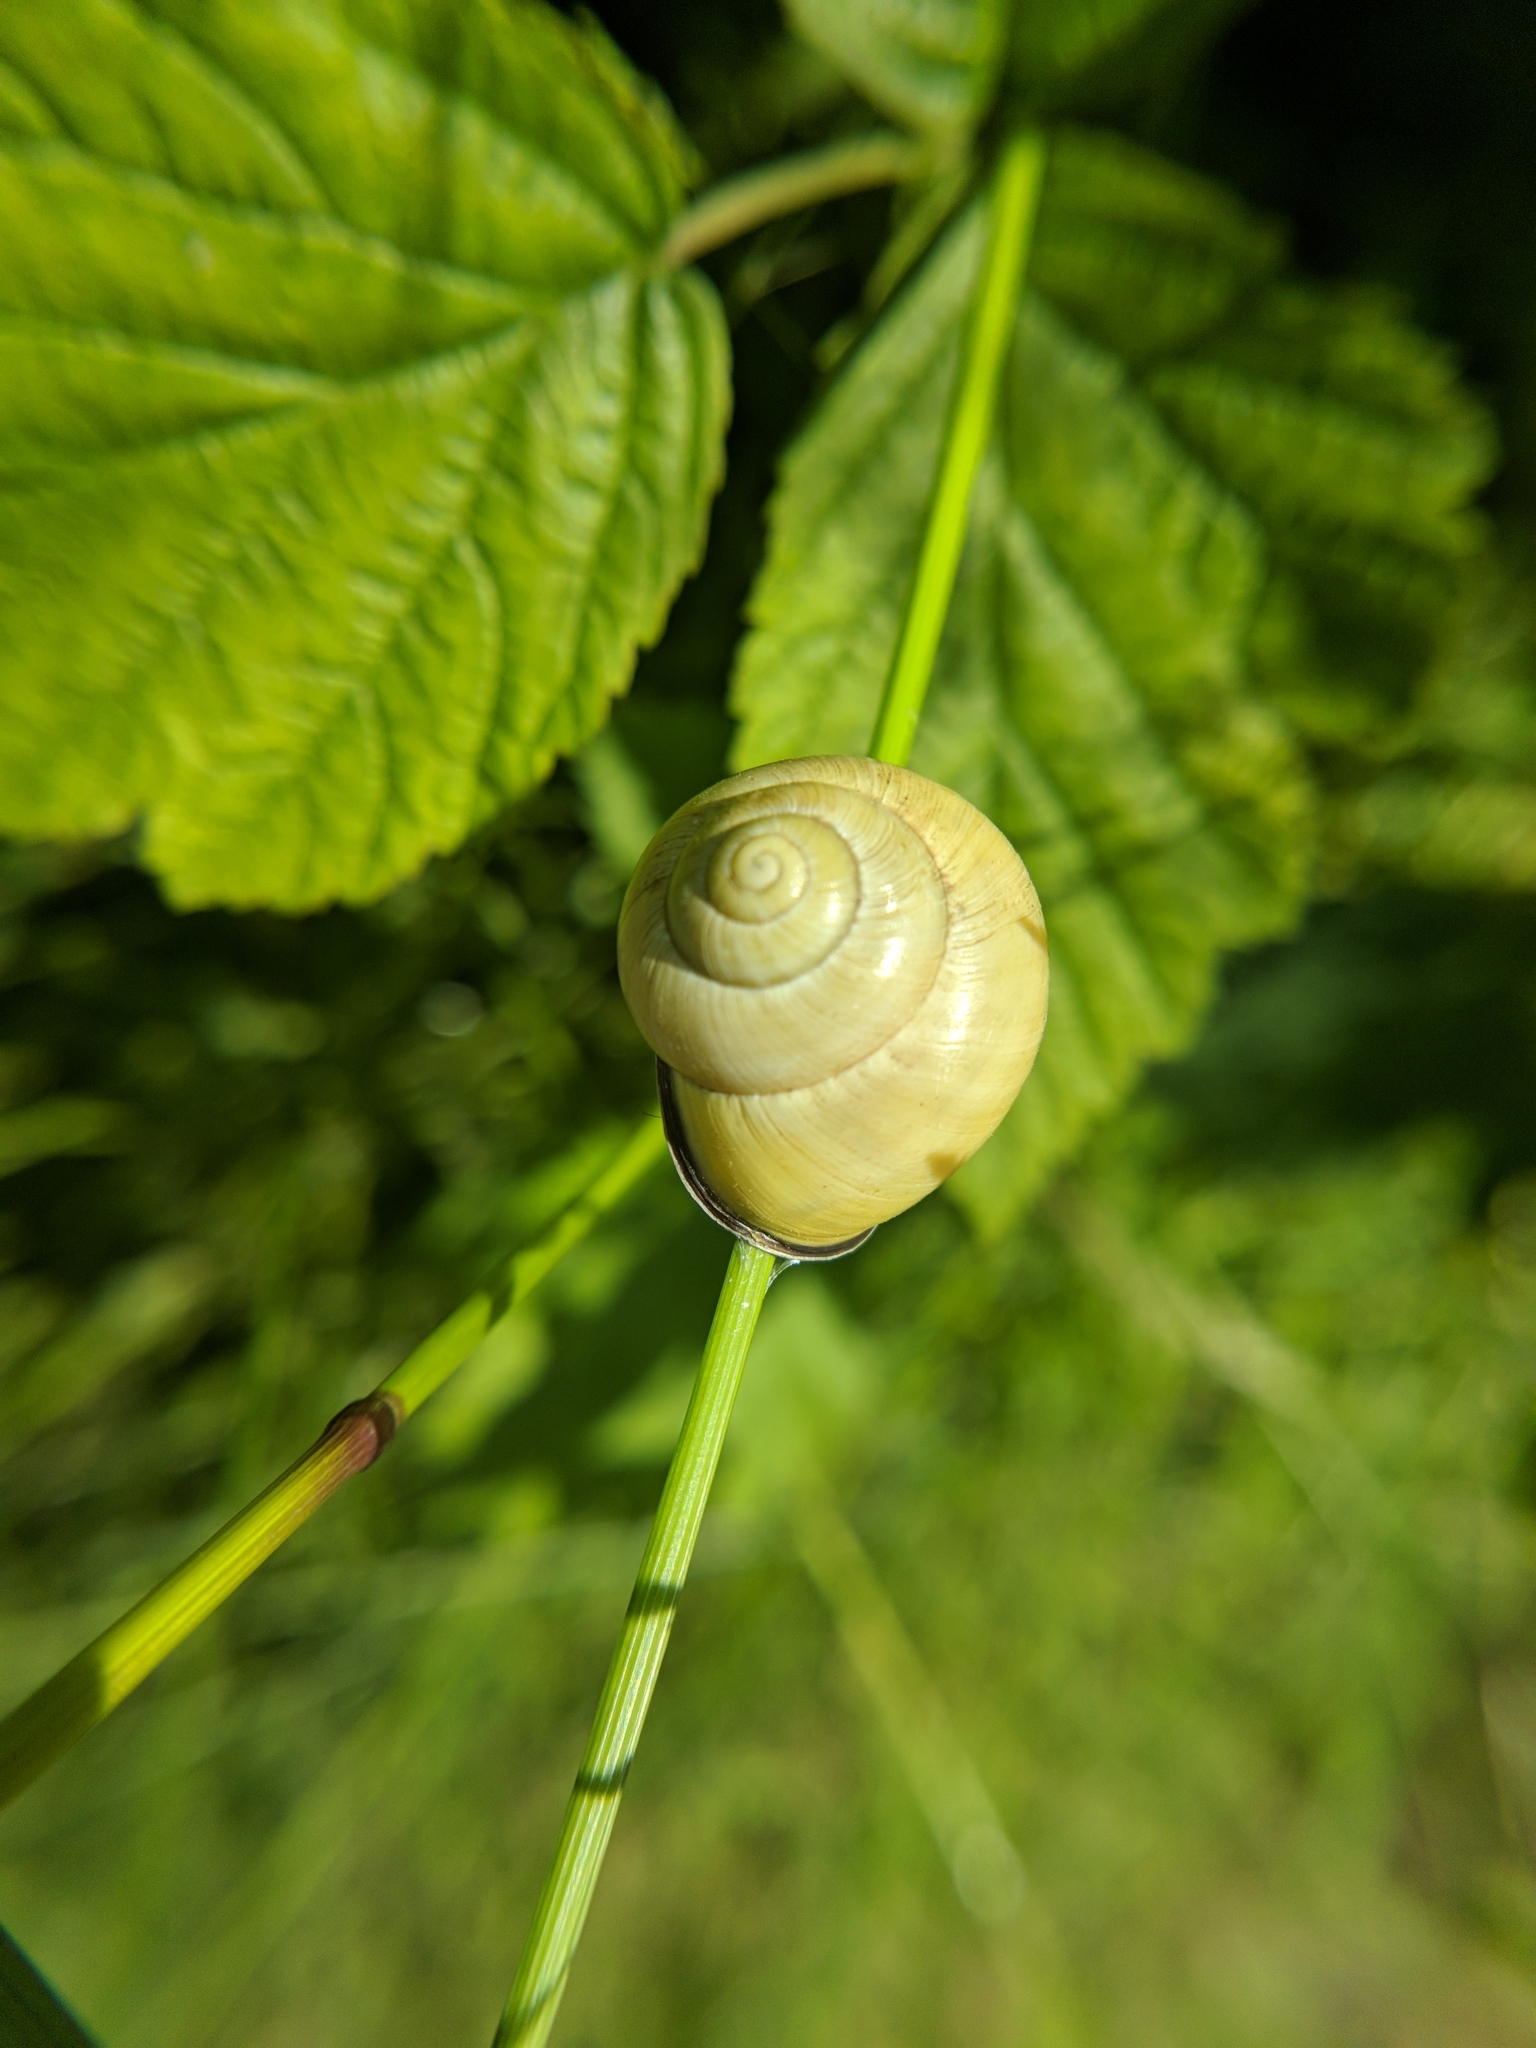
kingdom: Animalia
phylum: Mollusca
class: Gastropoda
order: Stylommatophora
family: Helicidae
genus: Cepaea
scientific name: Cepaea nemoralis
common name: Grovesnail
